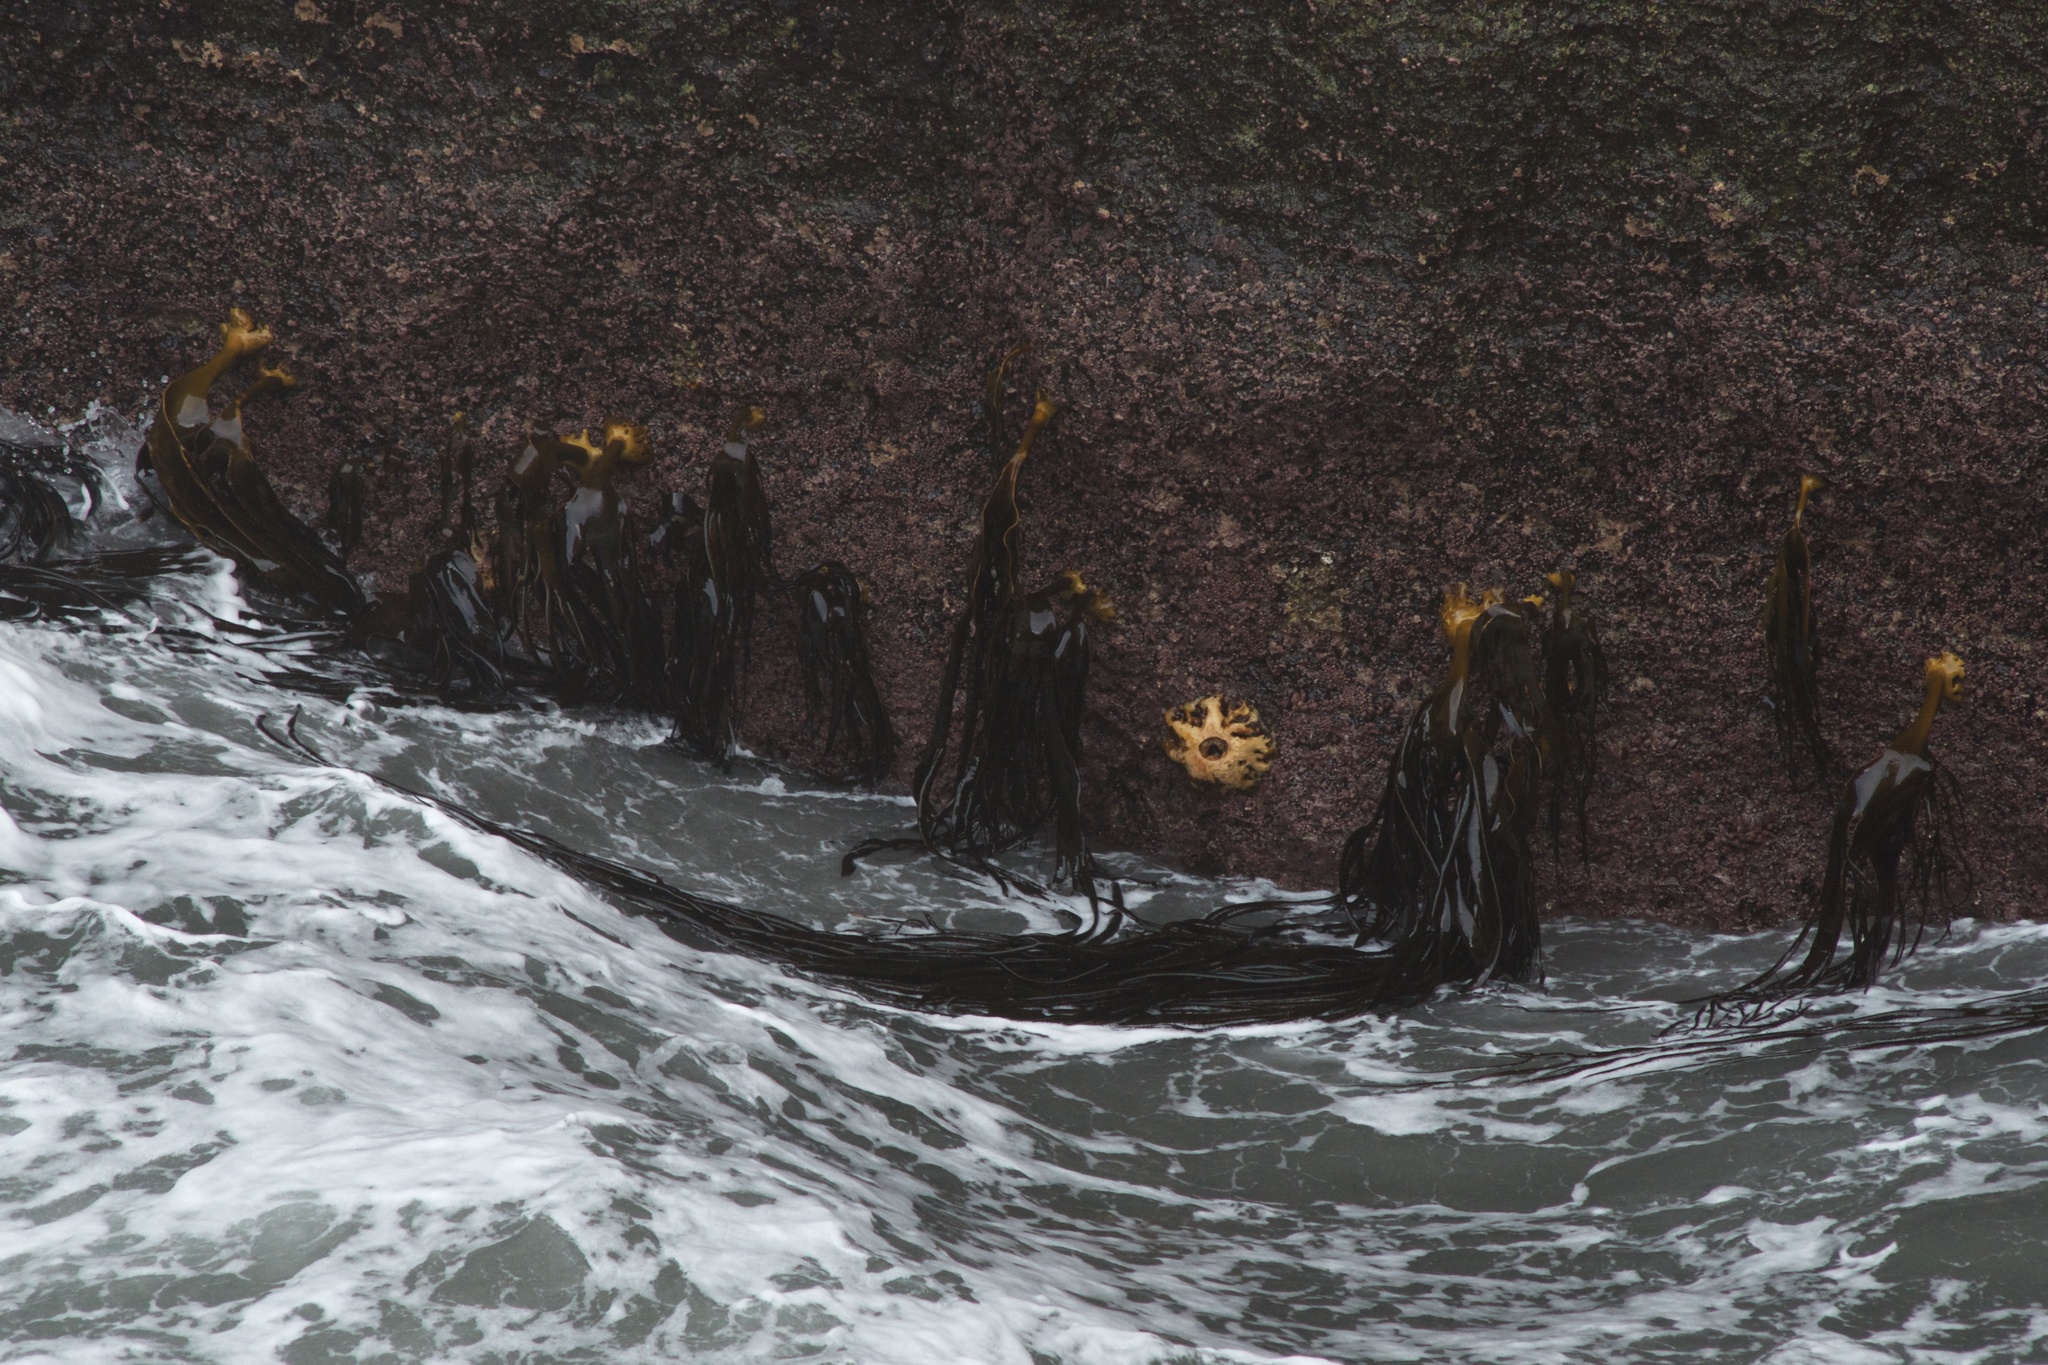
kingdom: Chromista
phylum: Ochrophyta
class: Phaeophyceae
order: Fucales
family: Durvillaeaceae
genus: Durvillaea
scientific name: Durvillaea antarctica
